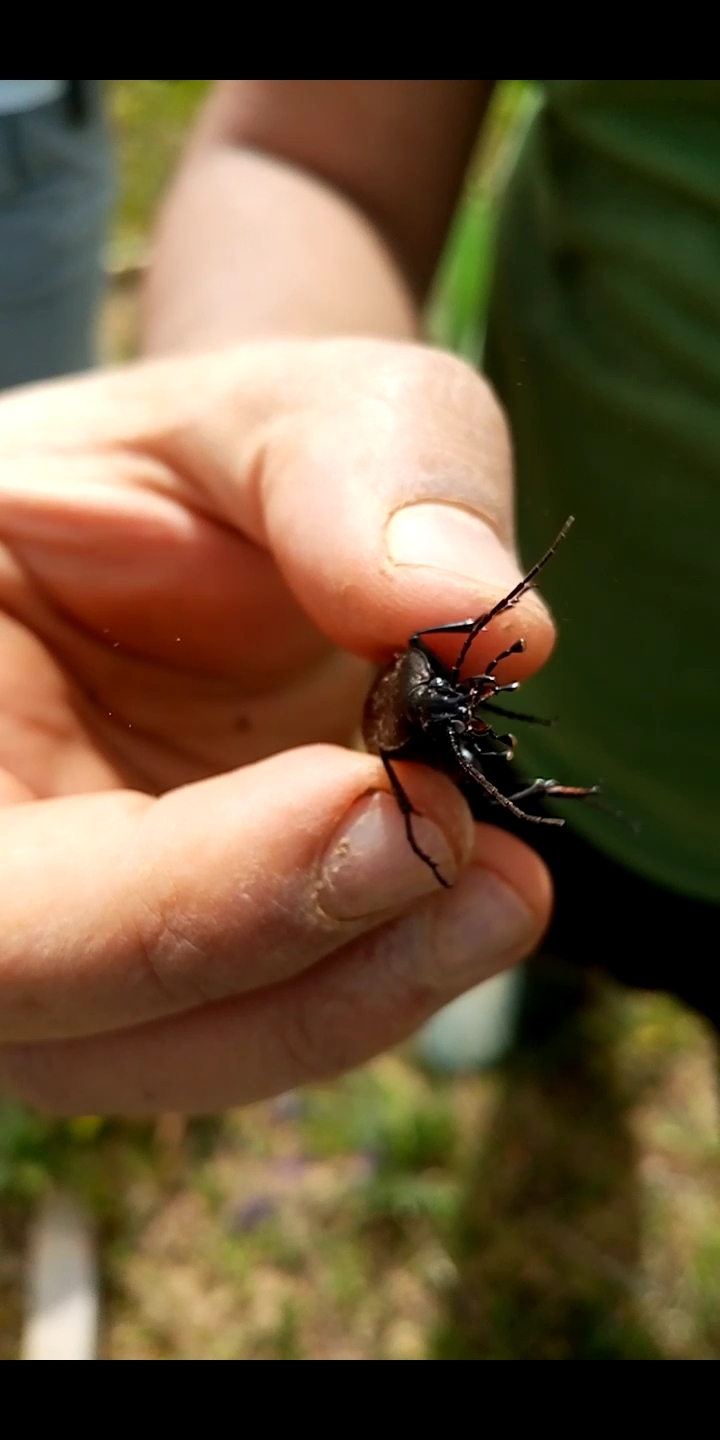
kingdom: Animalia
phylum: Arthropoda
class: Insecta
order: Coleoptera
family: Carabidae
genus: Carabus
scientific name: Carabus rugosus
